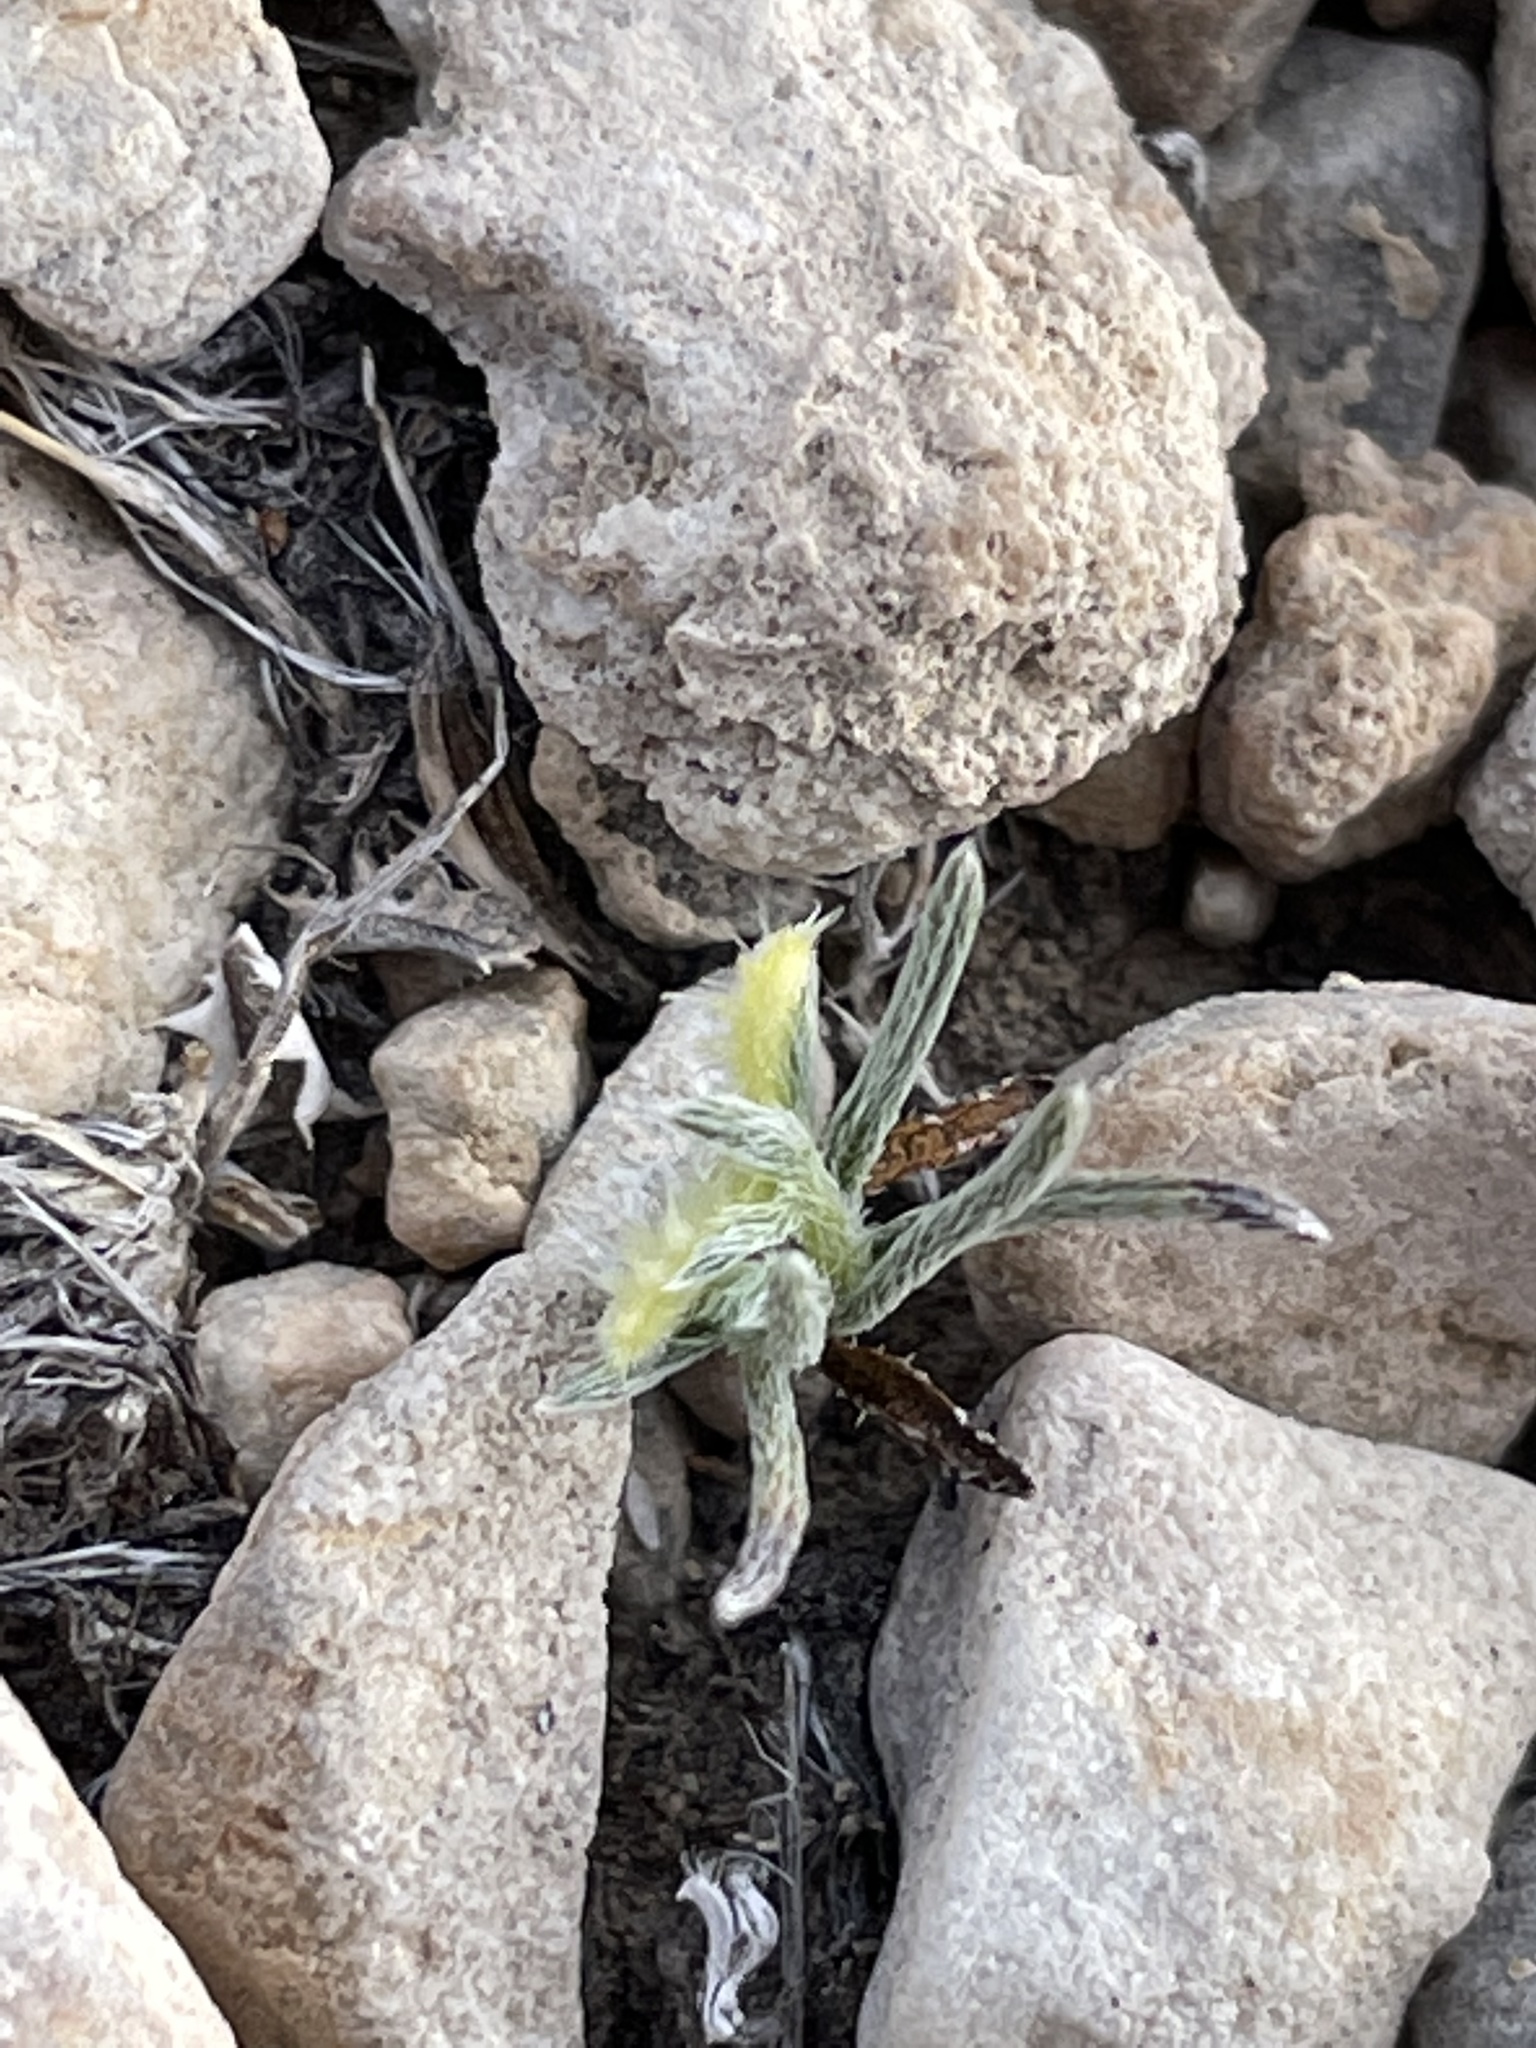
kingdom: Plantae
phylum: Tracheophyta
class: Magnoliopsida
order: Boraginales
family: Boraginaceae
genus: Pectocarya
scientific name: Pectocarya recurvata
